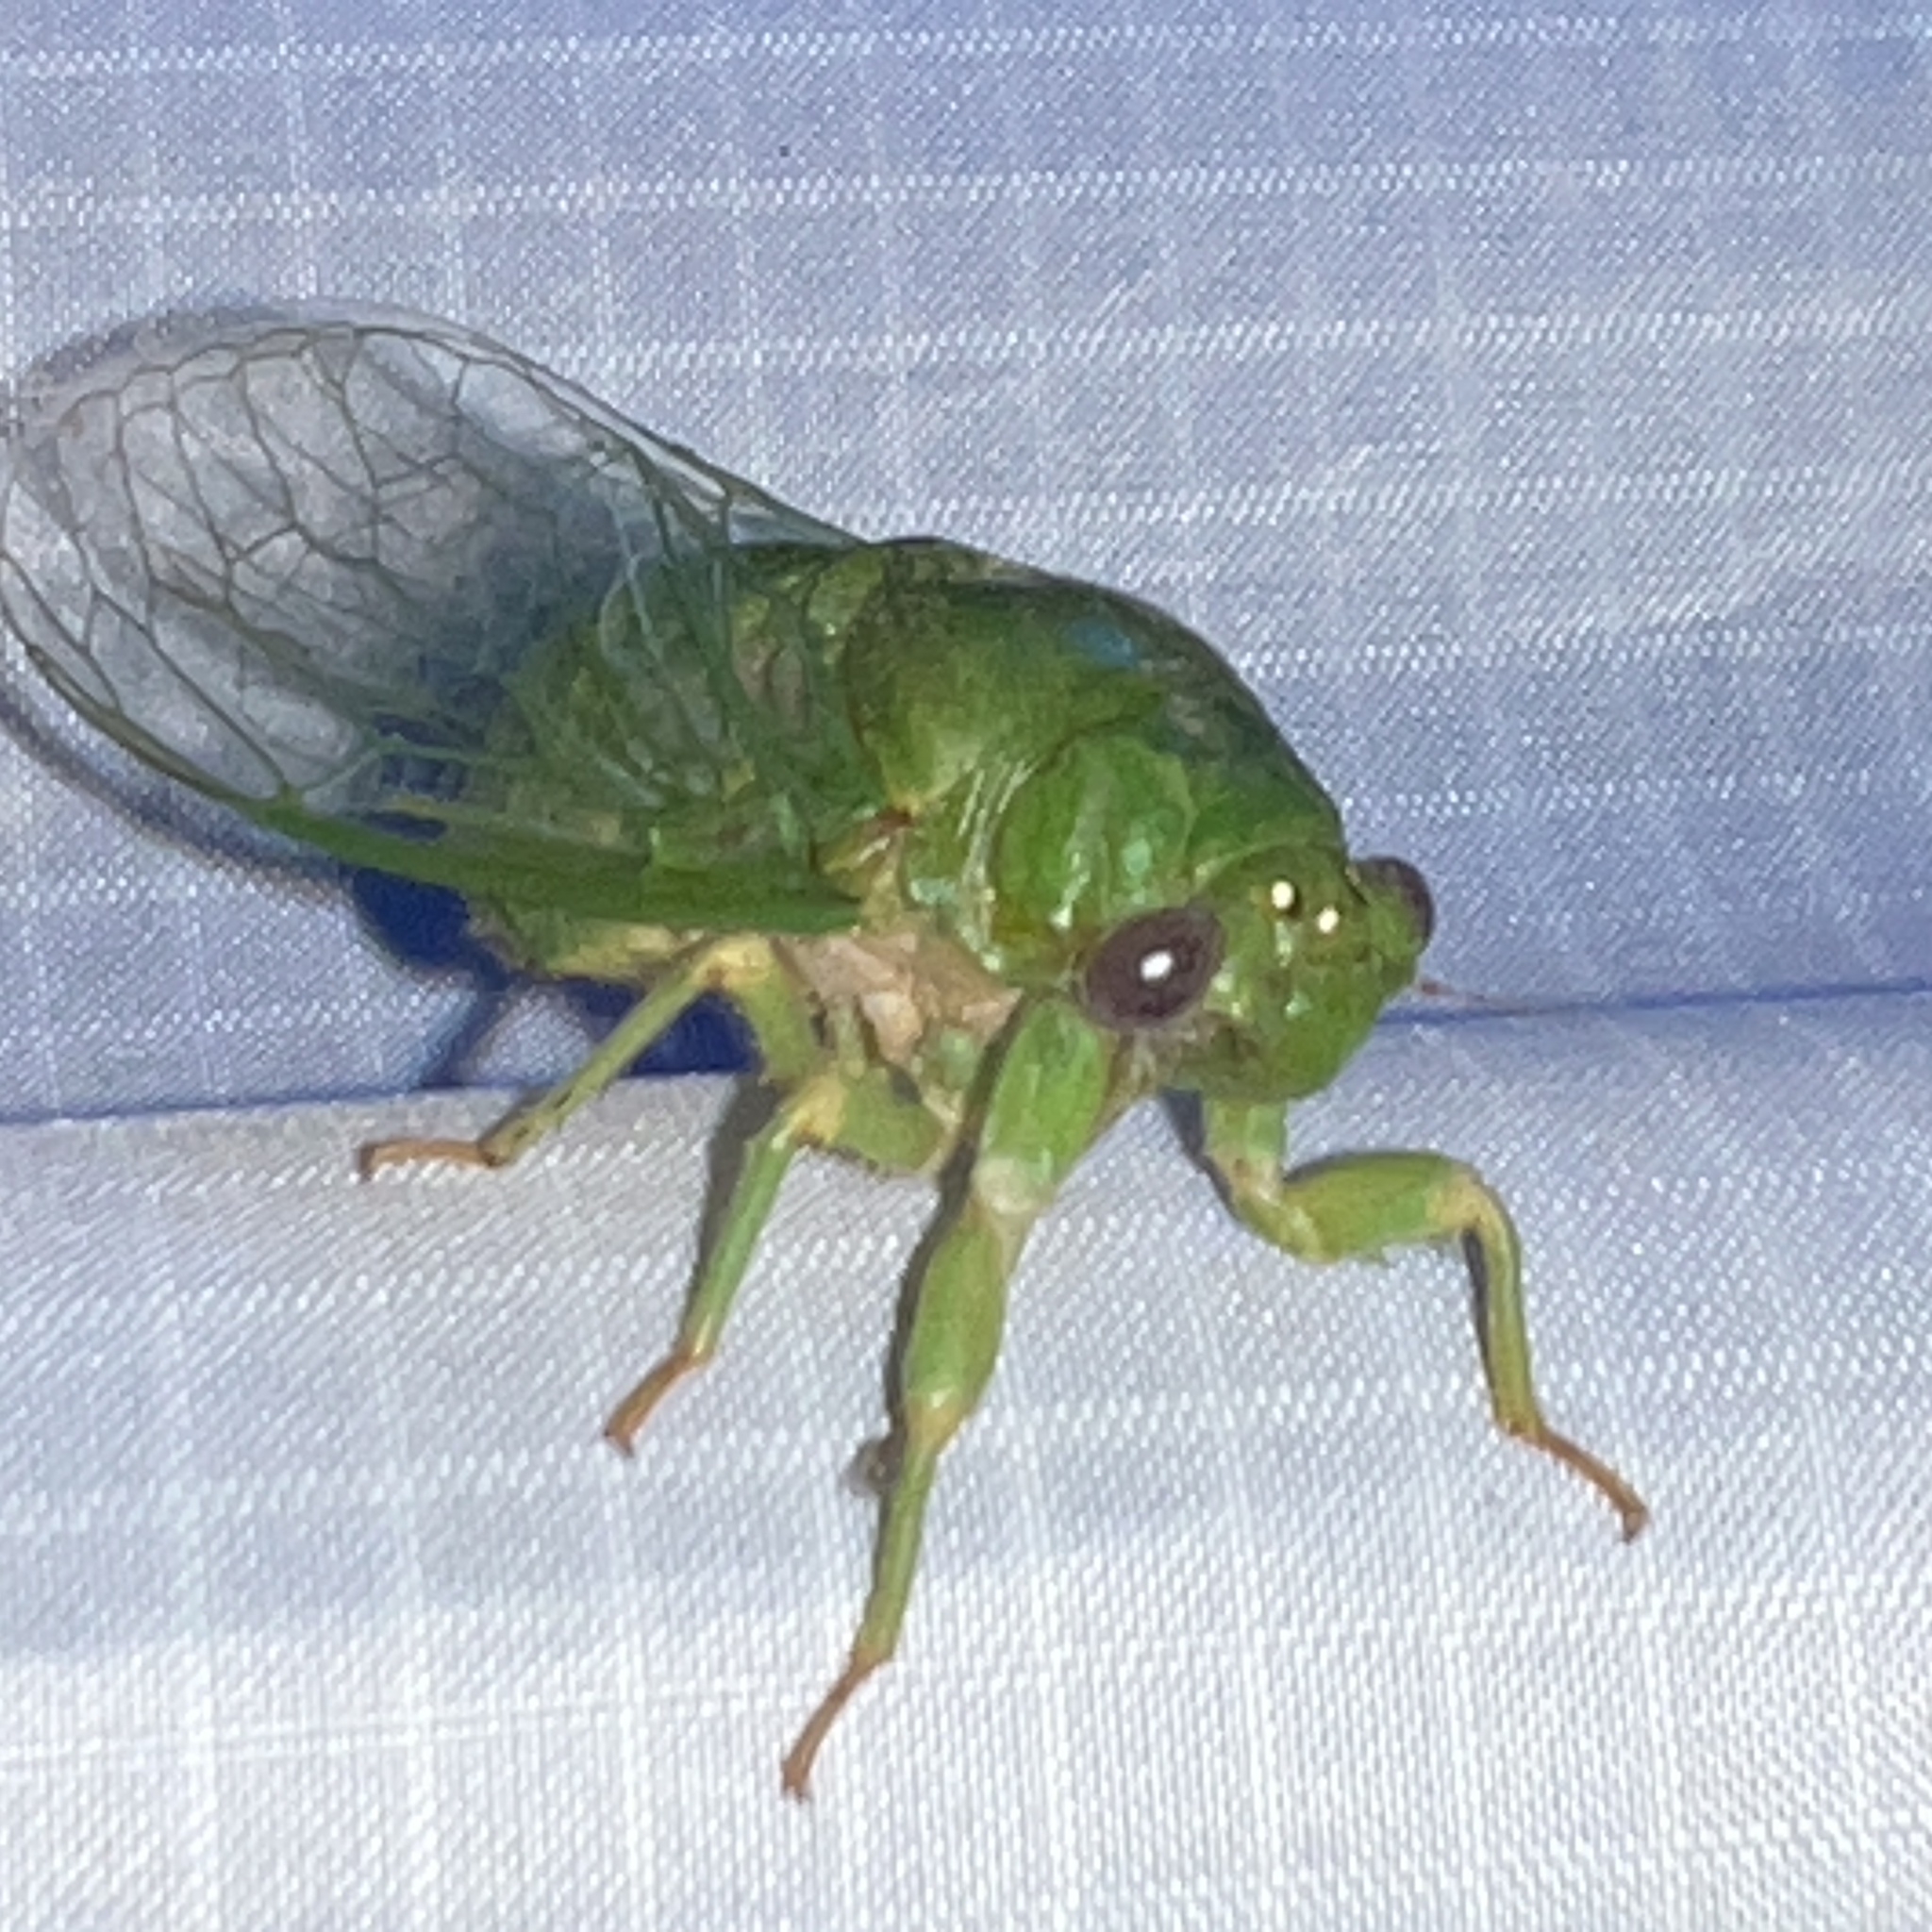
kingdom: Animalia
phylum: Arthropoda
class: Insecta
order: Hemiptera
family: Cicadidae
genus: Glaucopsaltria
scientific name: Glaucopsaltria viridis
